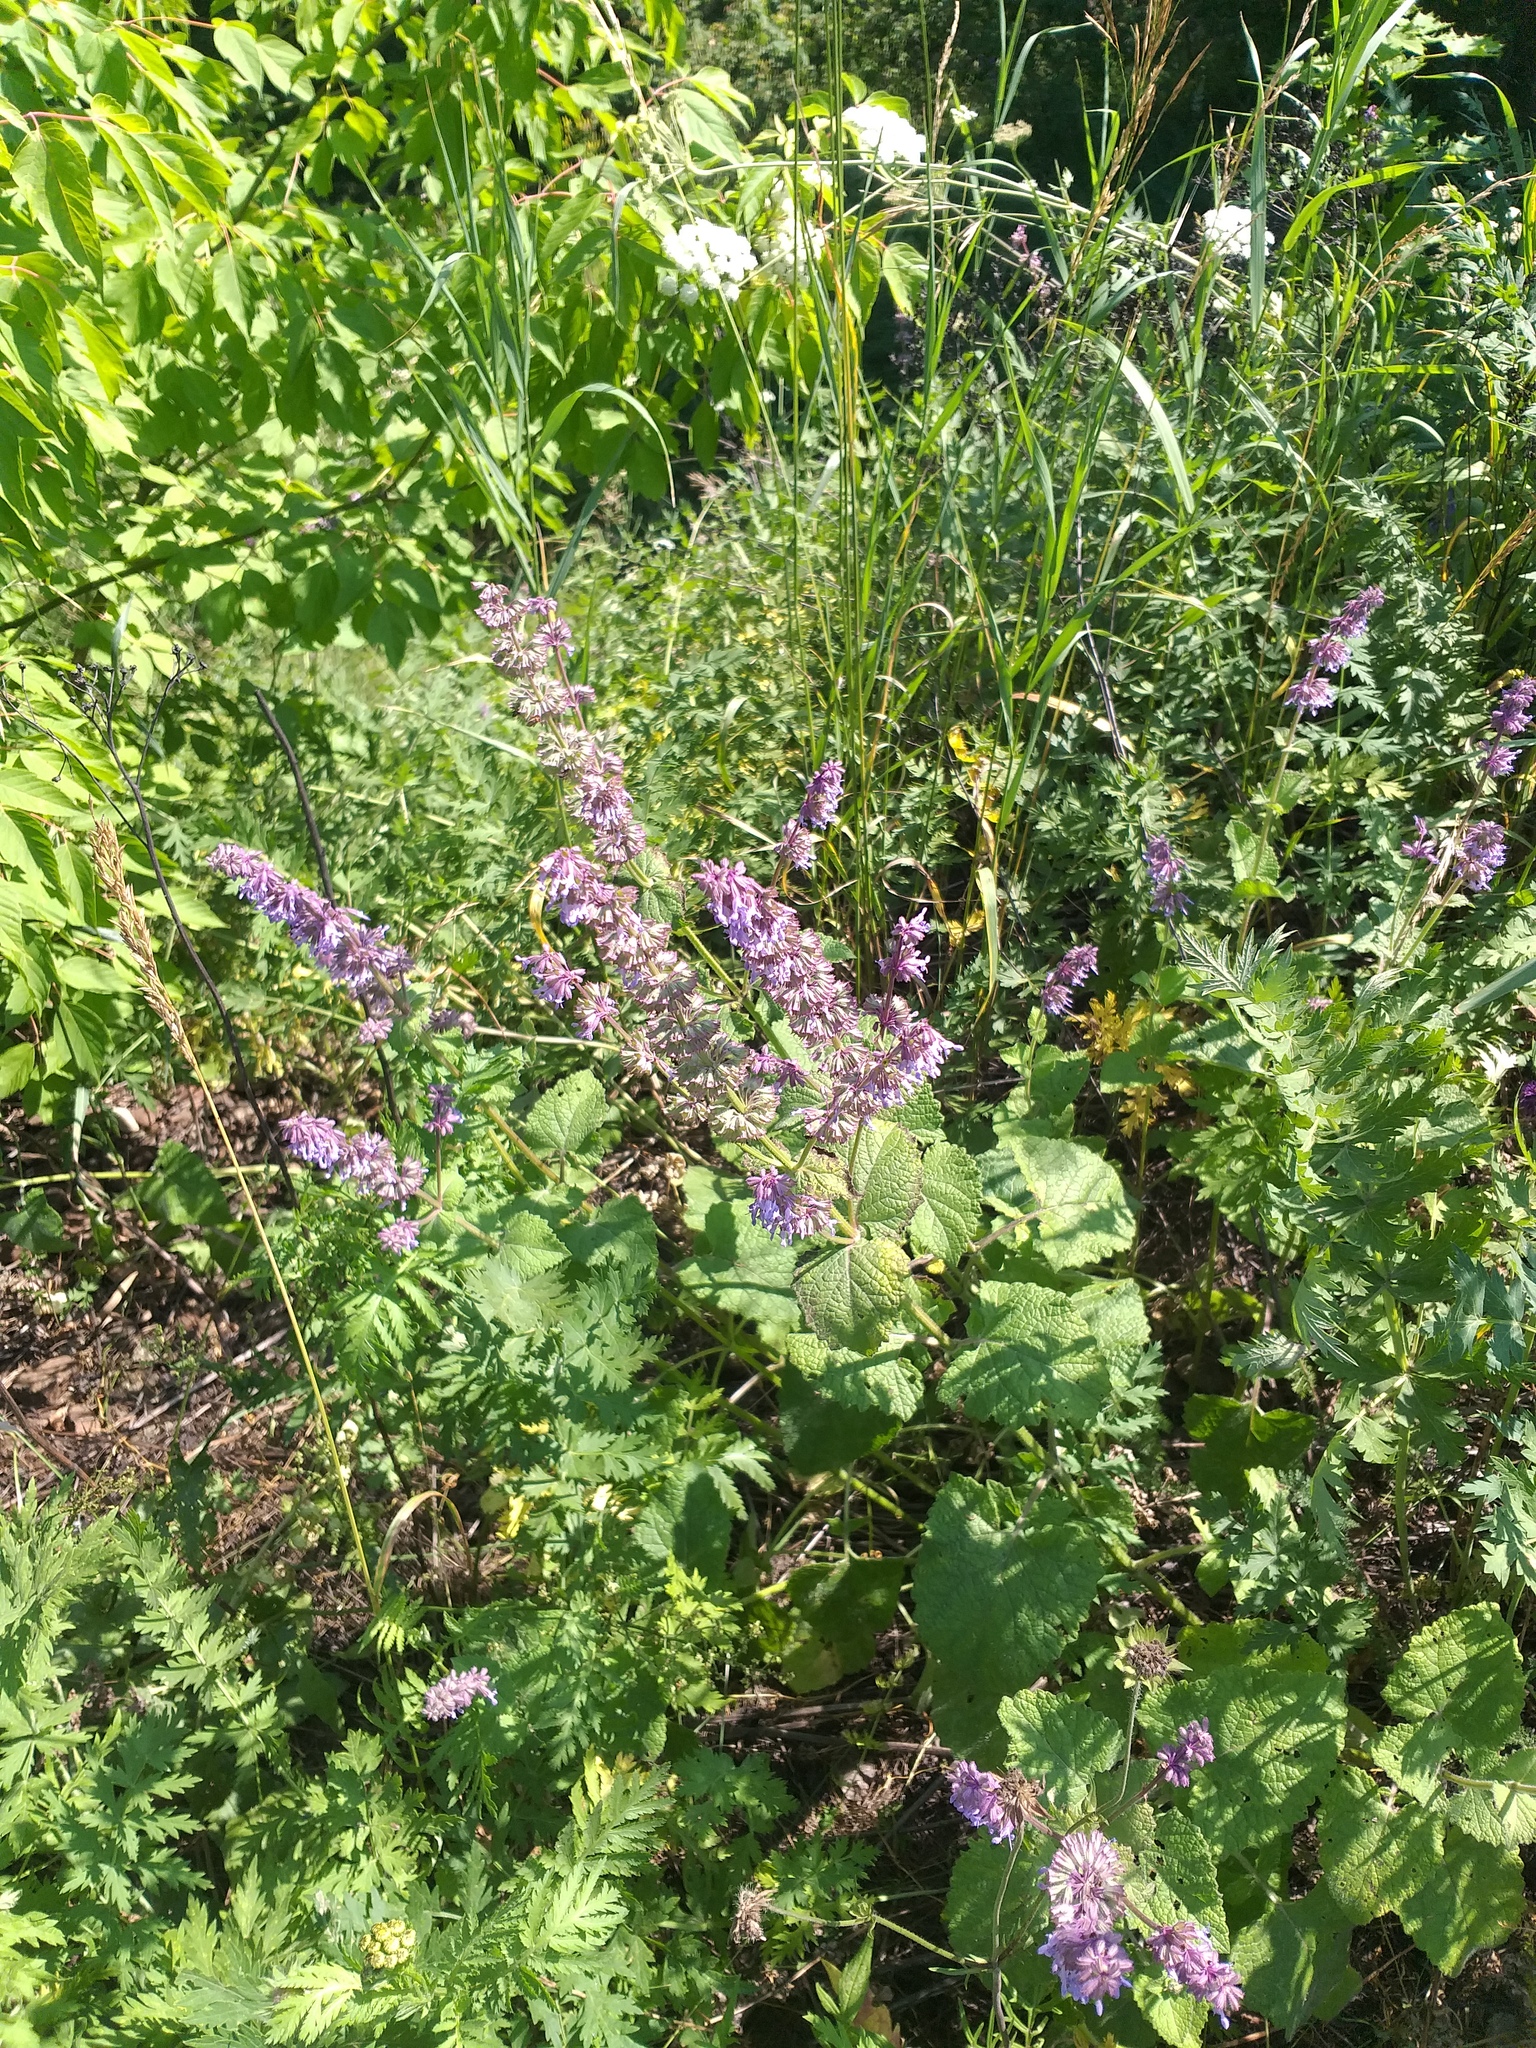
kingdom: Plantae
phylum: Tracheophyta
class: Magnoliopsida
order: Lamiales
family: Lamiaceae
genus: Salvia
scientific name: Salvia verticillata
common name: Whorled clary
